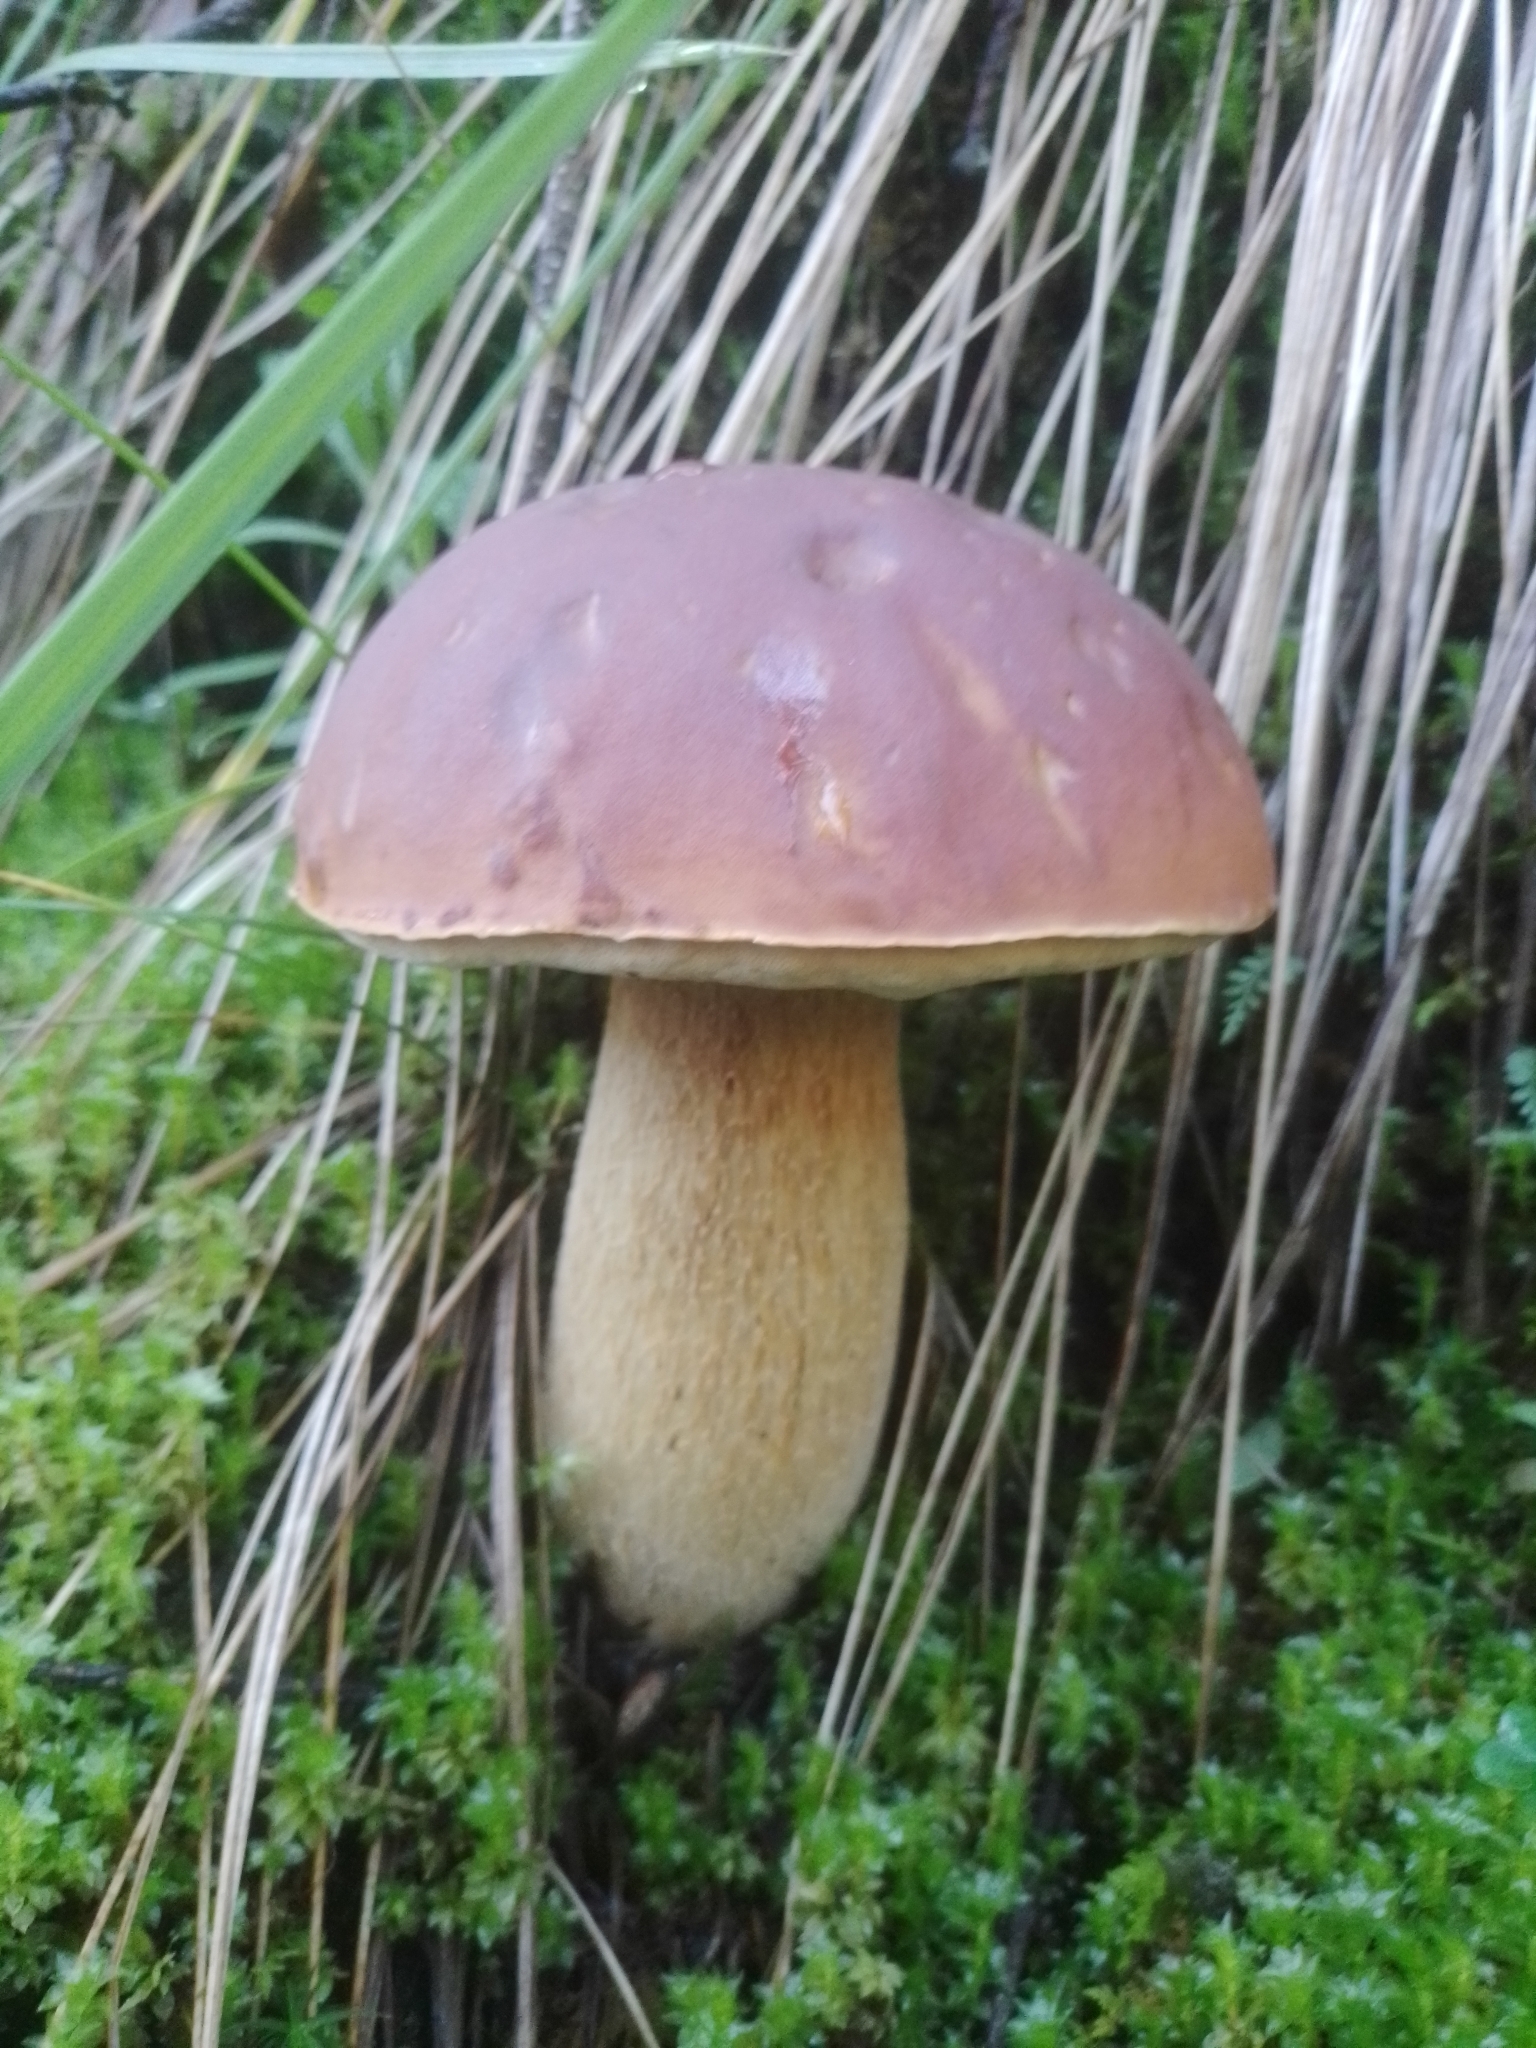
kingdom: Fungi
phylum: Basidiomycota
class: Agaricomycetes
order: Boletales
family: Boletaceae
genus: Boletus
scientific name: Boletus rubriceps
